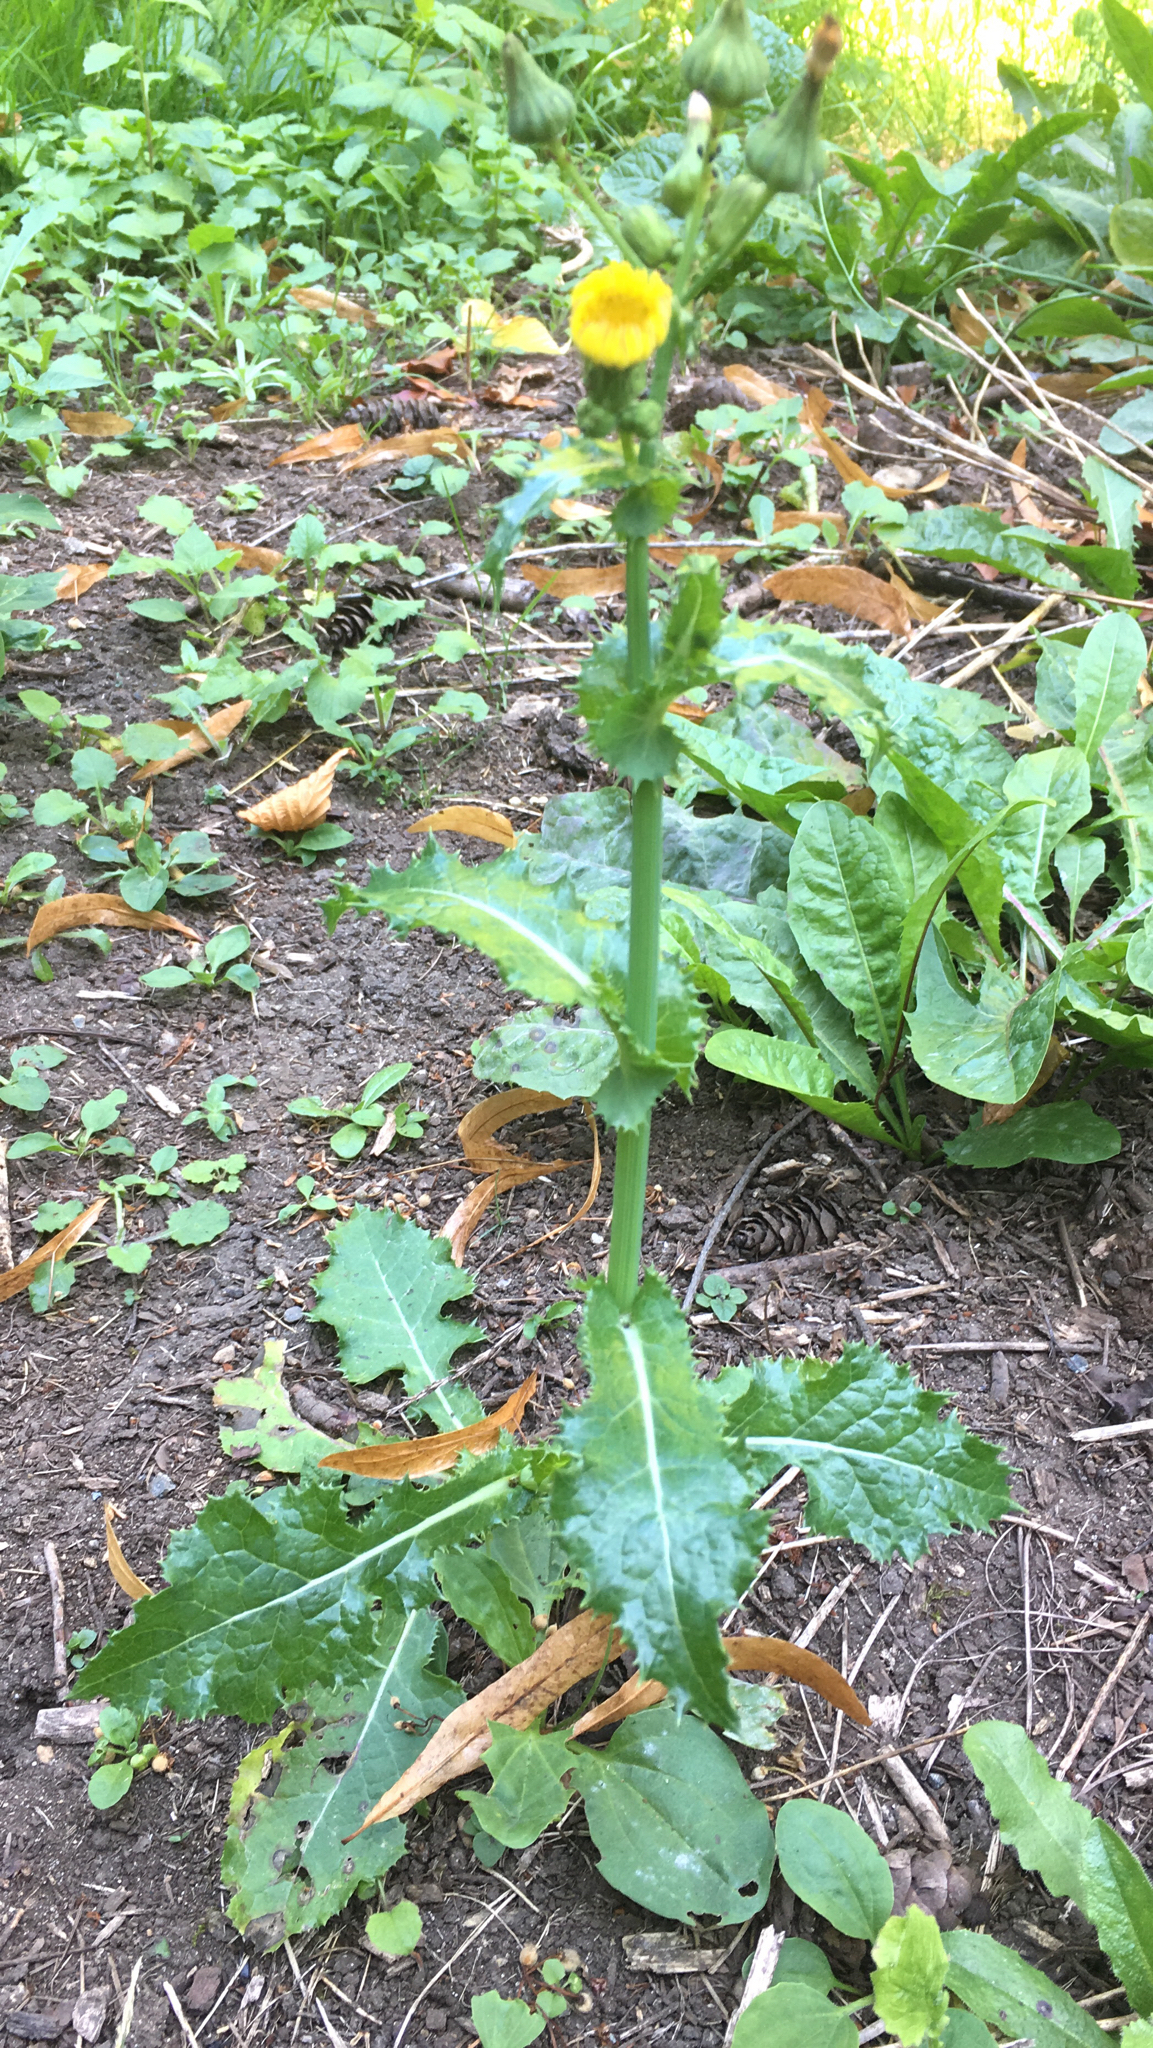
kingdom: Plantae
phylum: Tracheophyta
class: Magnoliopsida
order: Asterales
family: Asteraceae
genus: Sonchus
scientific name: Sonchus asper
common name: Prickly sow-thistle
